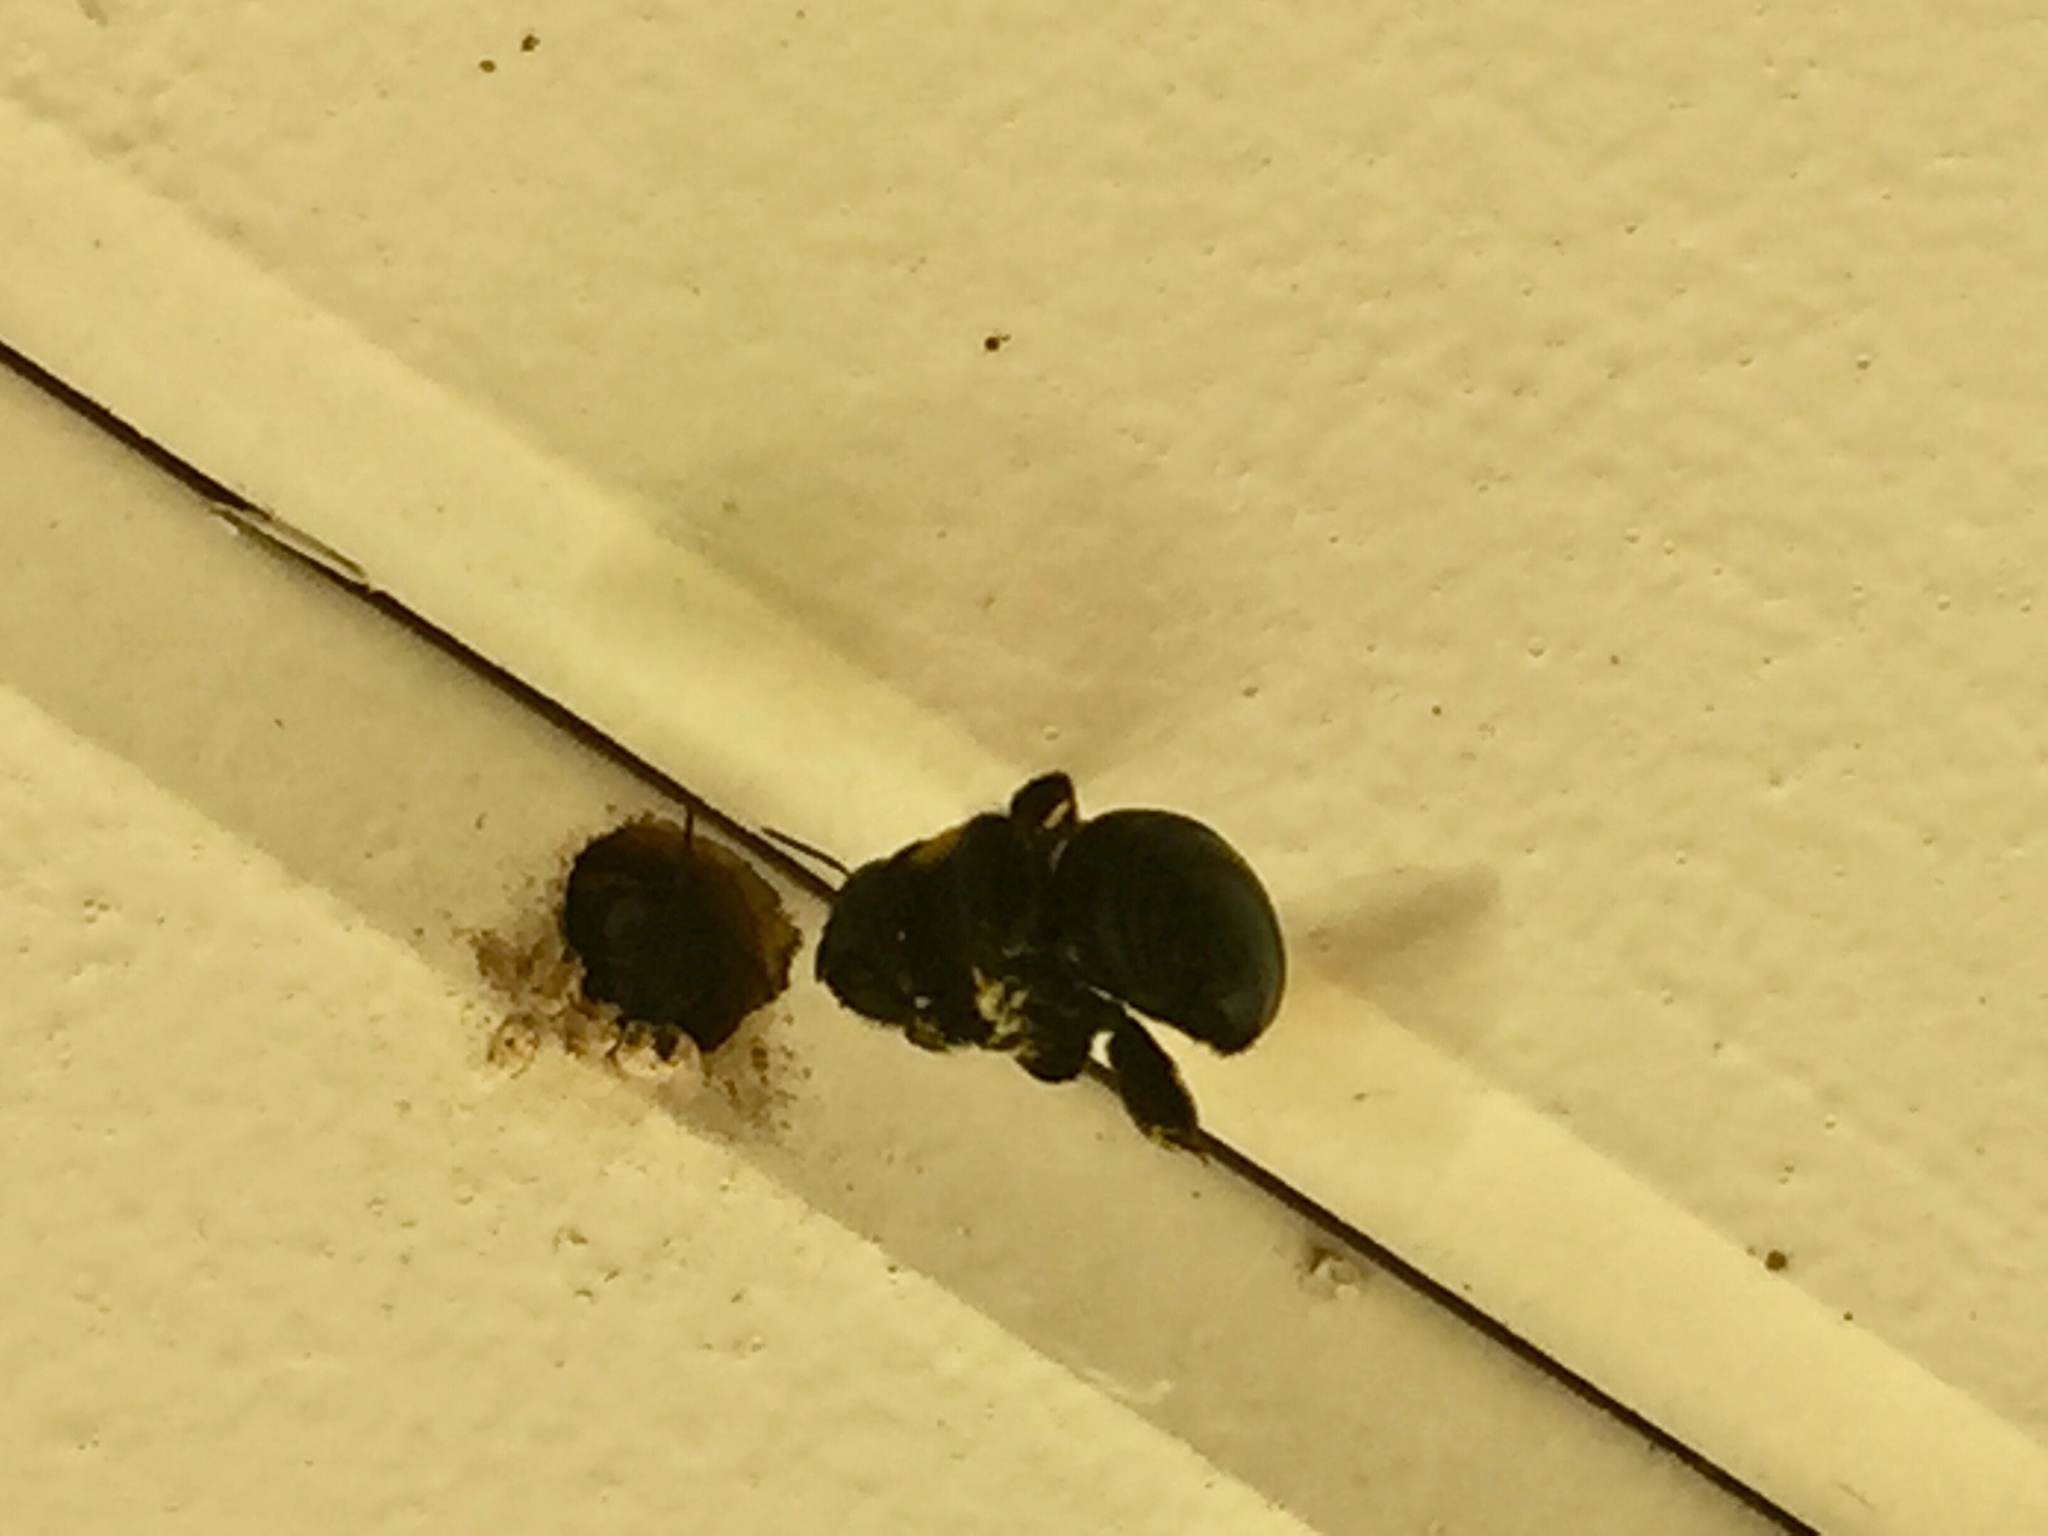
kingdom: Animalia
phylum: Arthropoda
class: Insecta
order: Hymenoptera
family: Apidae
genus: Xylocopa
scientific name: Xylocopa virginica
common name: Carpenter bee
